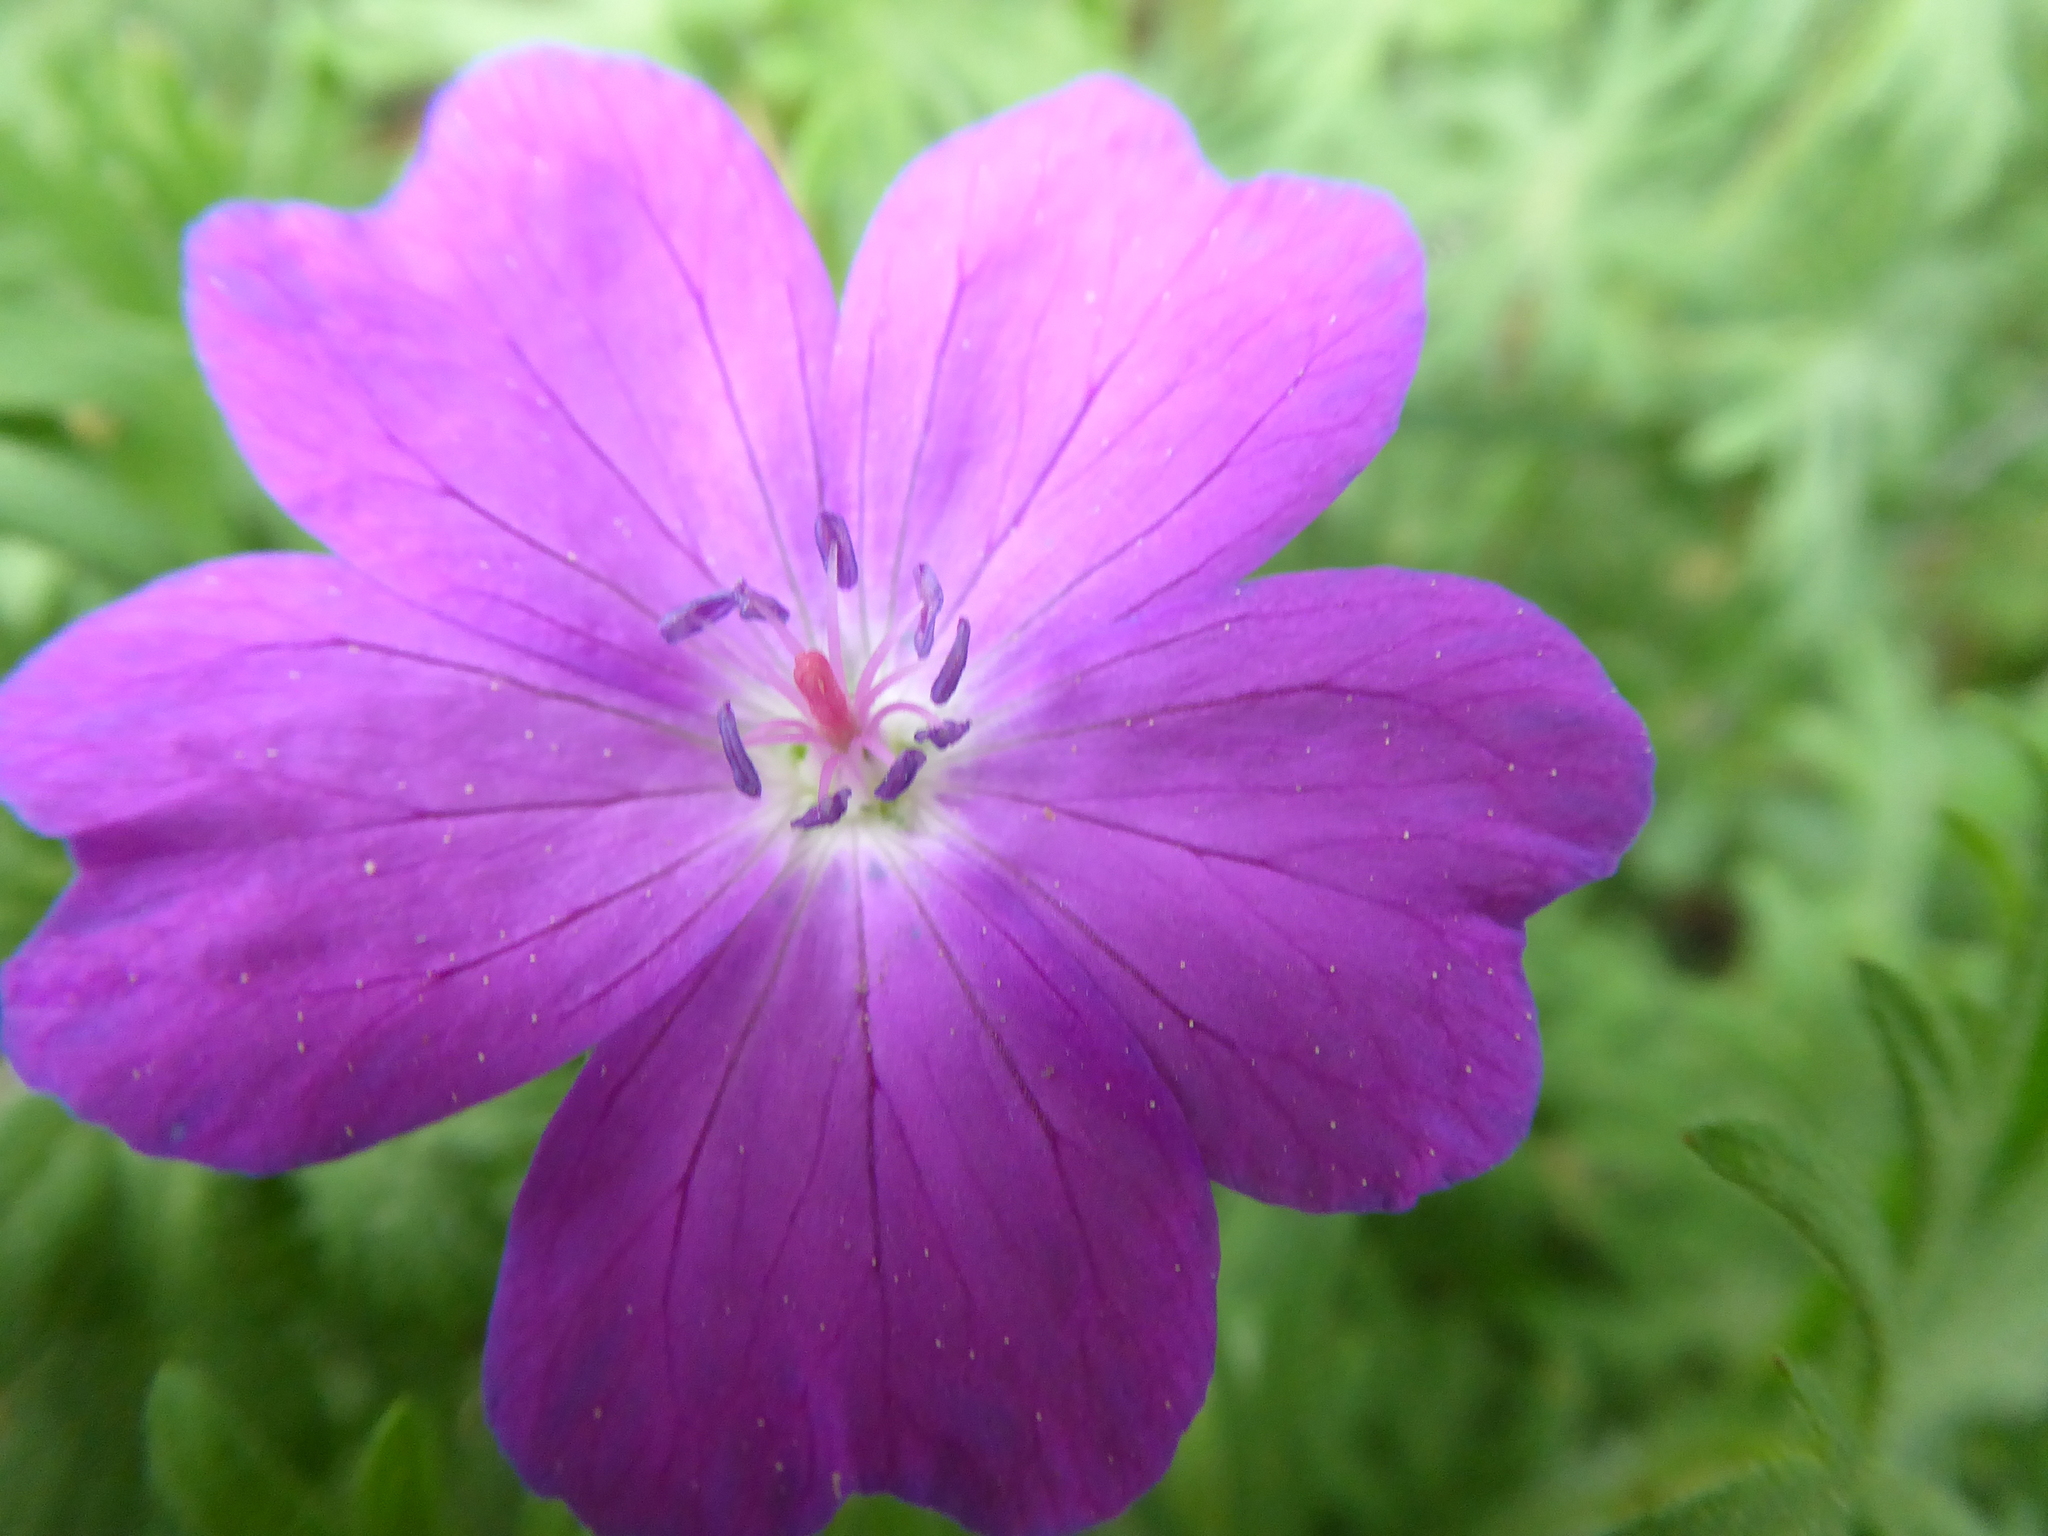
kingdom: Plantae
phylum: Tracheophyta
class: Magnoliopsida
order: Geraniales
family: Geraniaceae
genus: Geranium
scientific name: Geranium sanguineum
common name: Bloody crane's-bill
